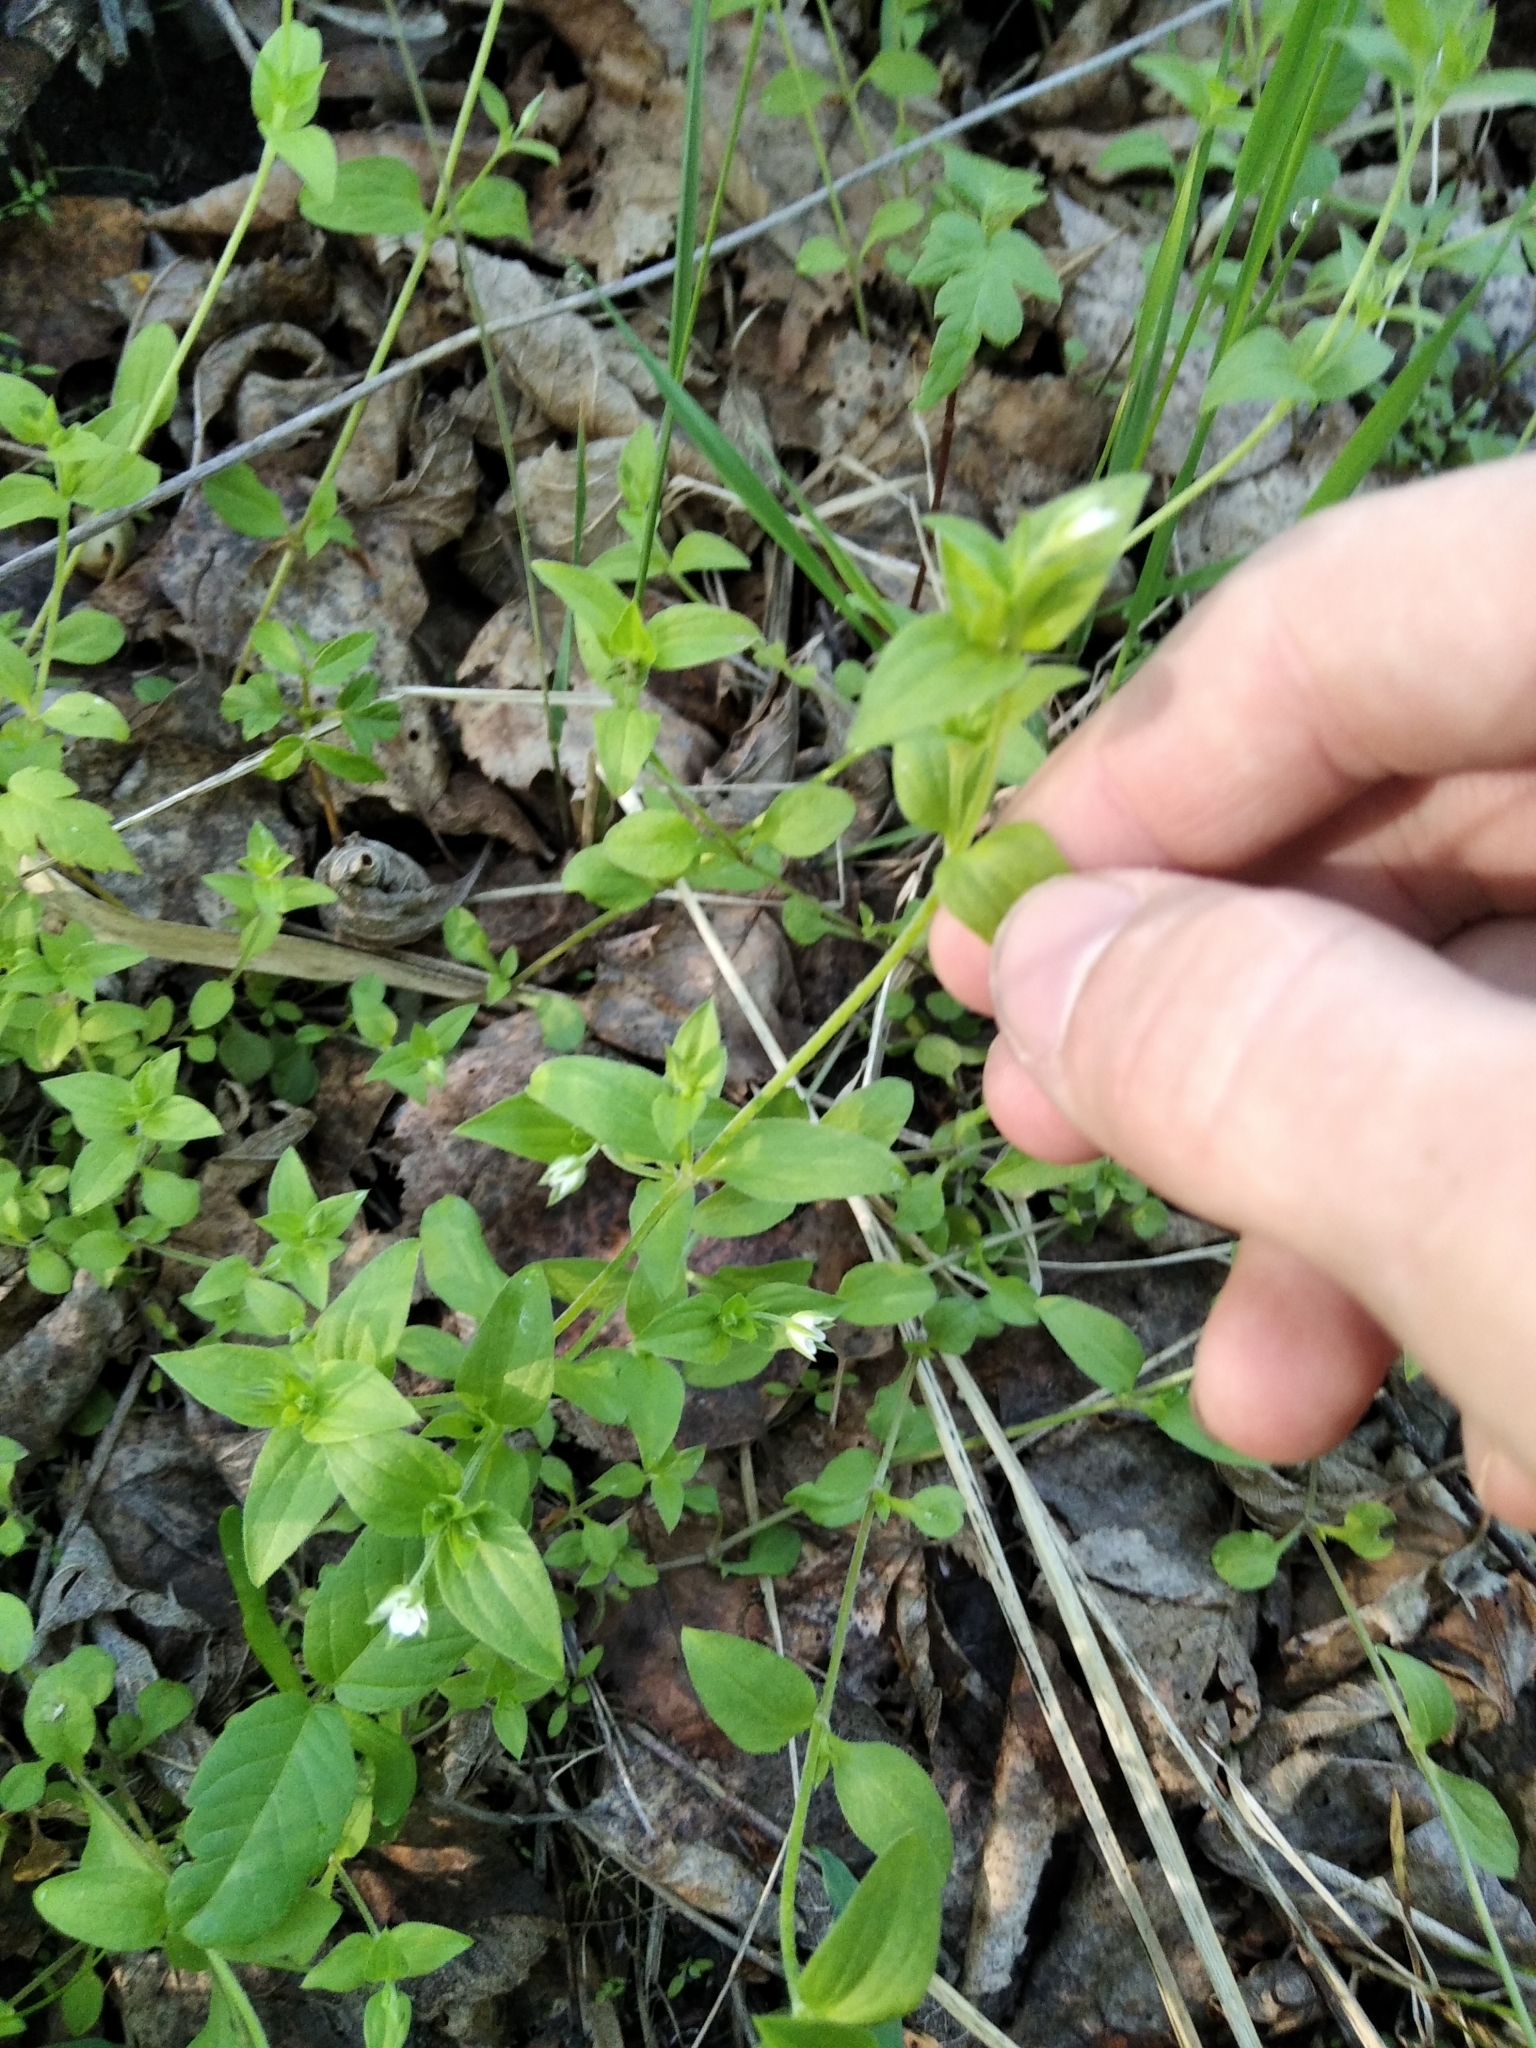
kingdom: Plantae
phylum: Tracheophyta
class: Magnoliopsida
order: Caryophyllales
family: Caryophyllaceae
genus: Moehringia
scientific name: Moehringia trinervia
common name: Three-nerved sandwort
